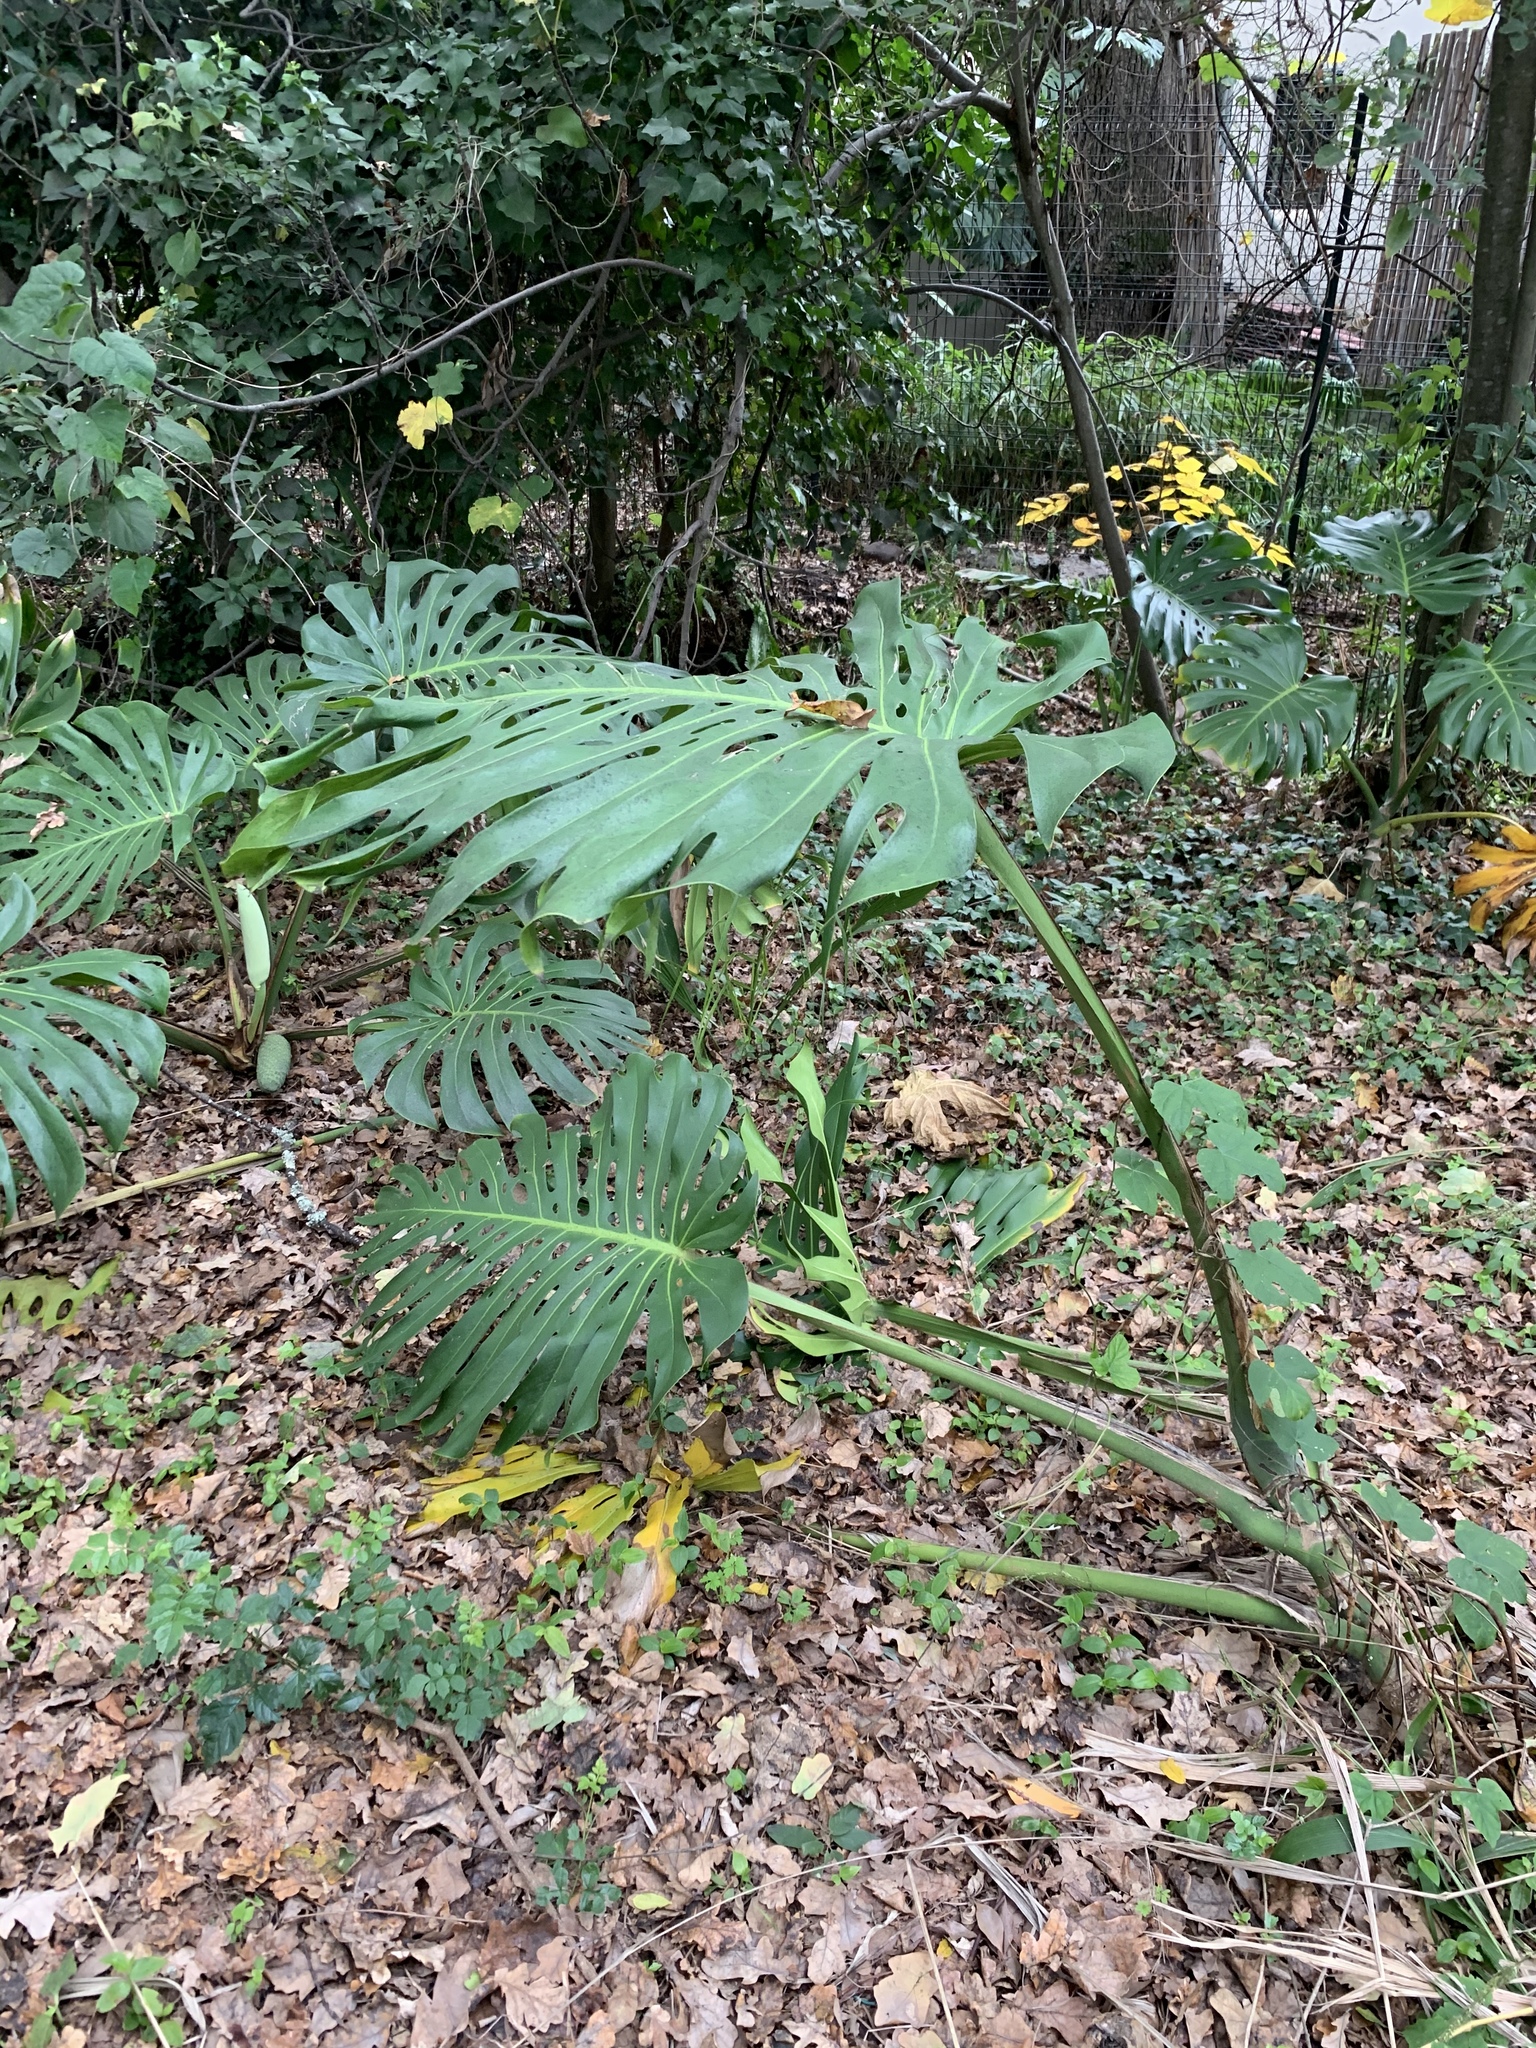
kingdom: Plantae
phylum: Tracheophyta
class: Liliopsida
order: Alismatales
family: Araceae
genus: Monstera
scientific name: Monstera deliciosa
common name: Cut-leaf-philodendron
